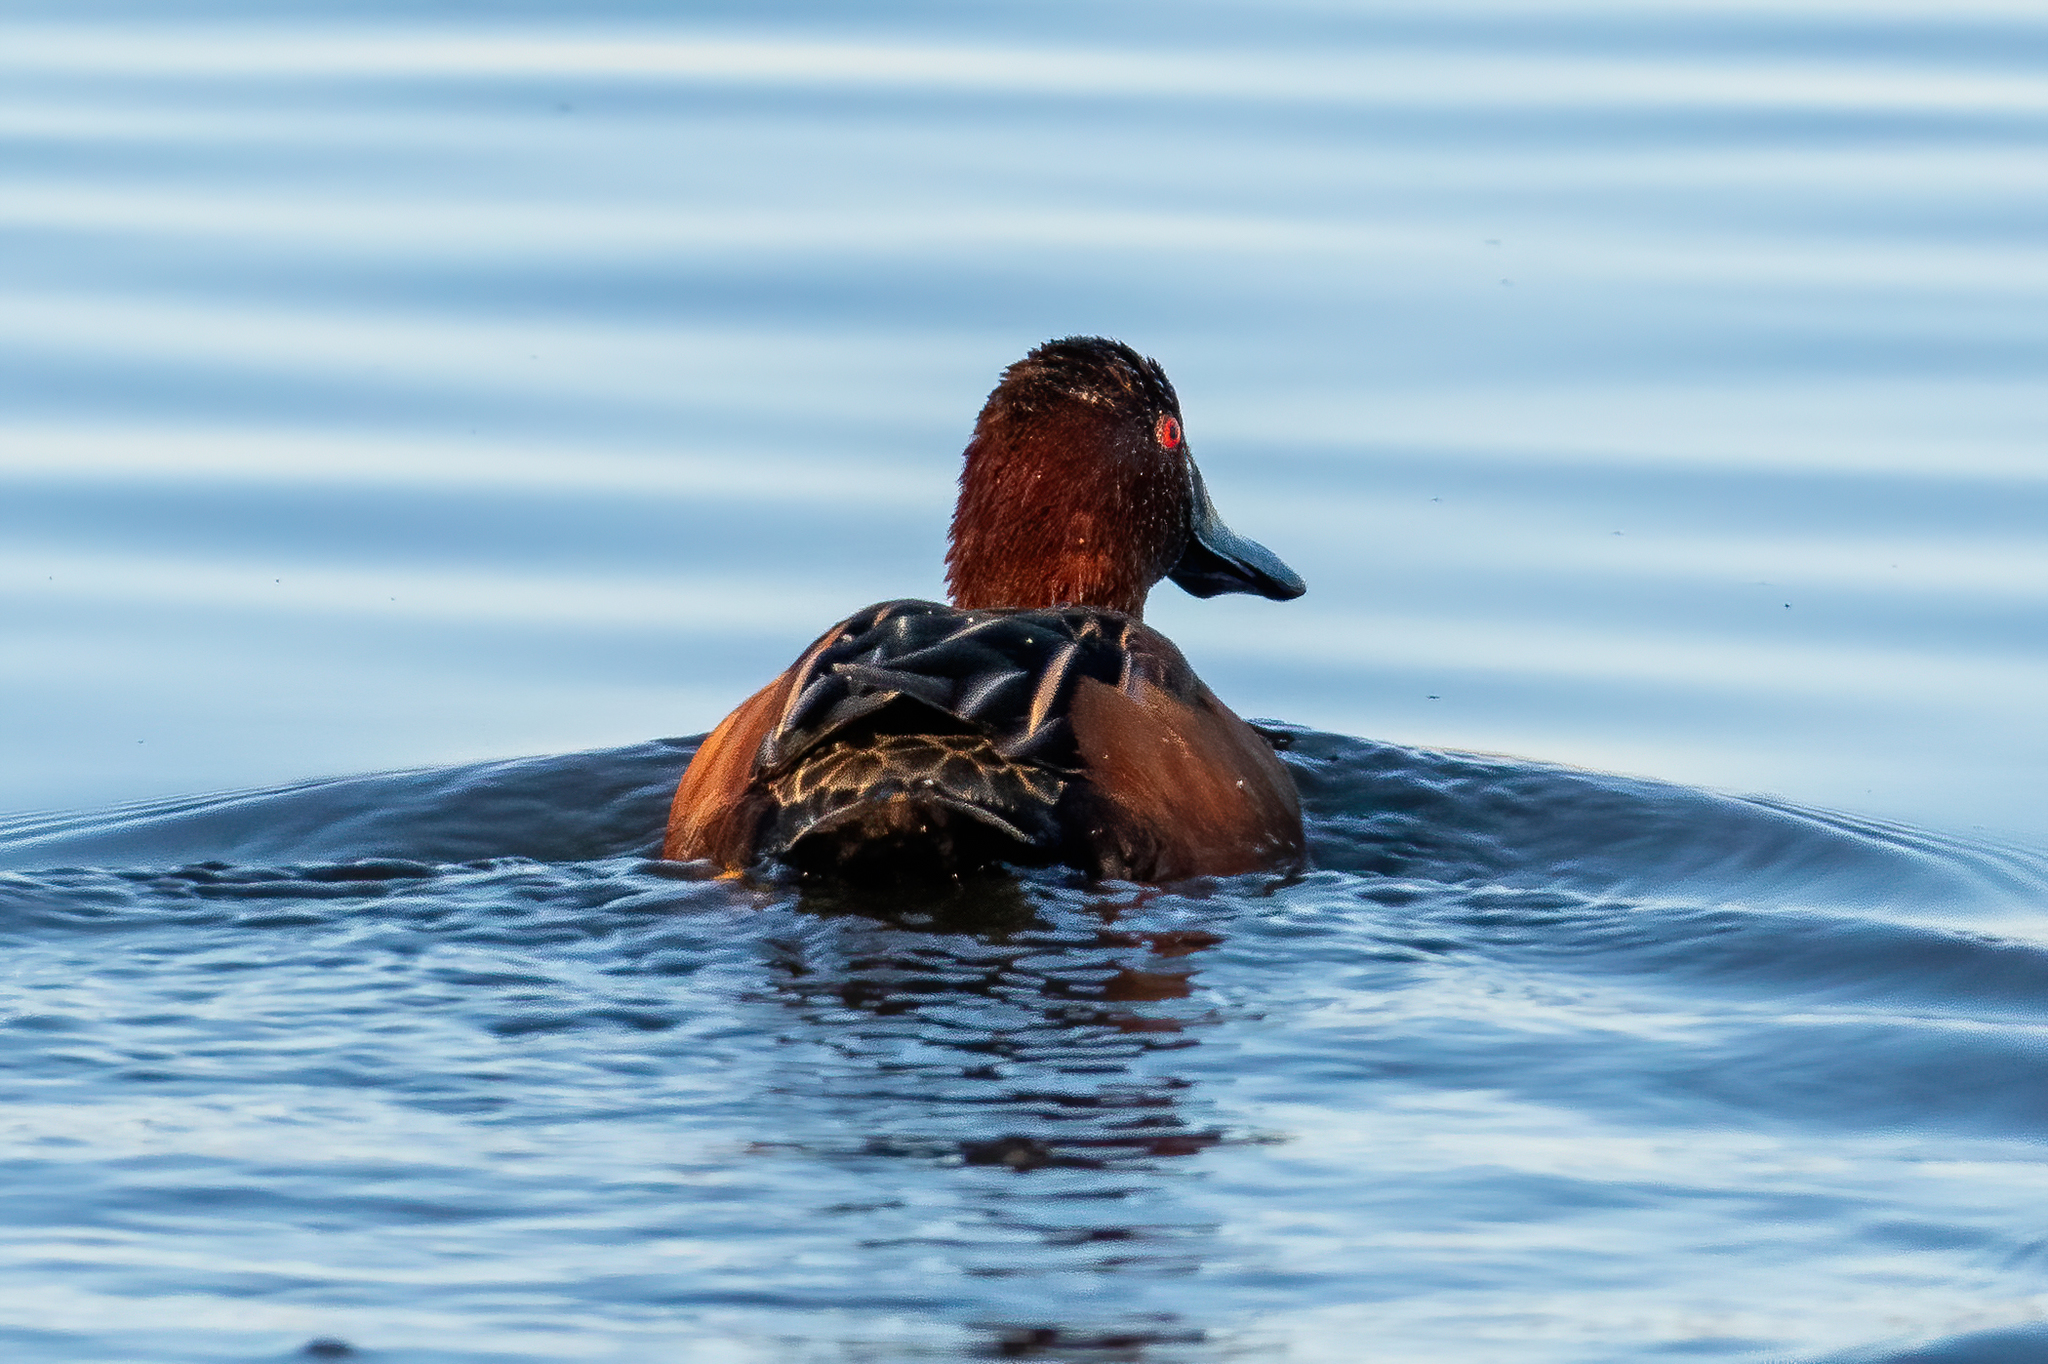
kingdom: Animalia
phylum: Chordata
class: Aves
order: Anseriformes
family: Anatidae
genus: Spatula
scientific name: Spatula cyanoptera
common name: Cinnamon teal
